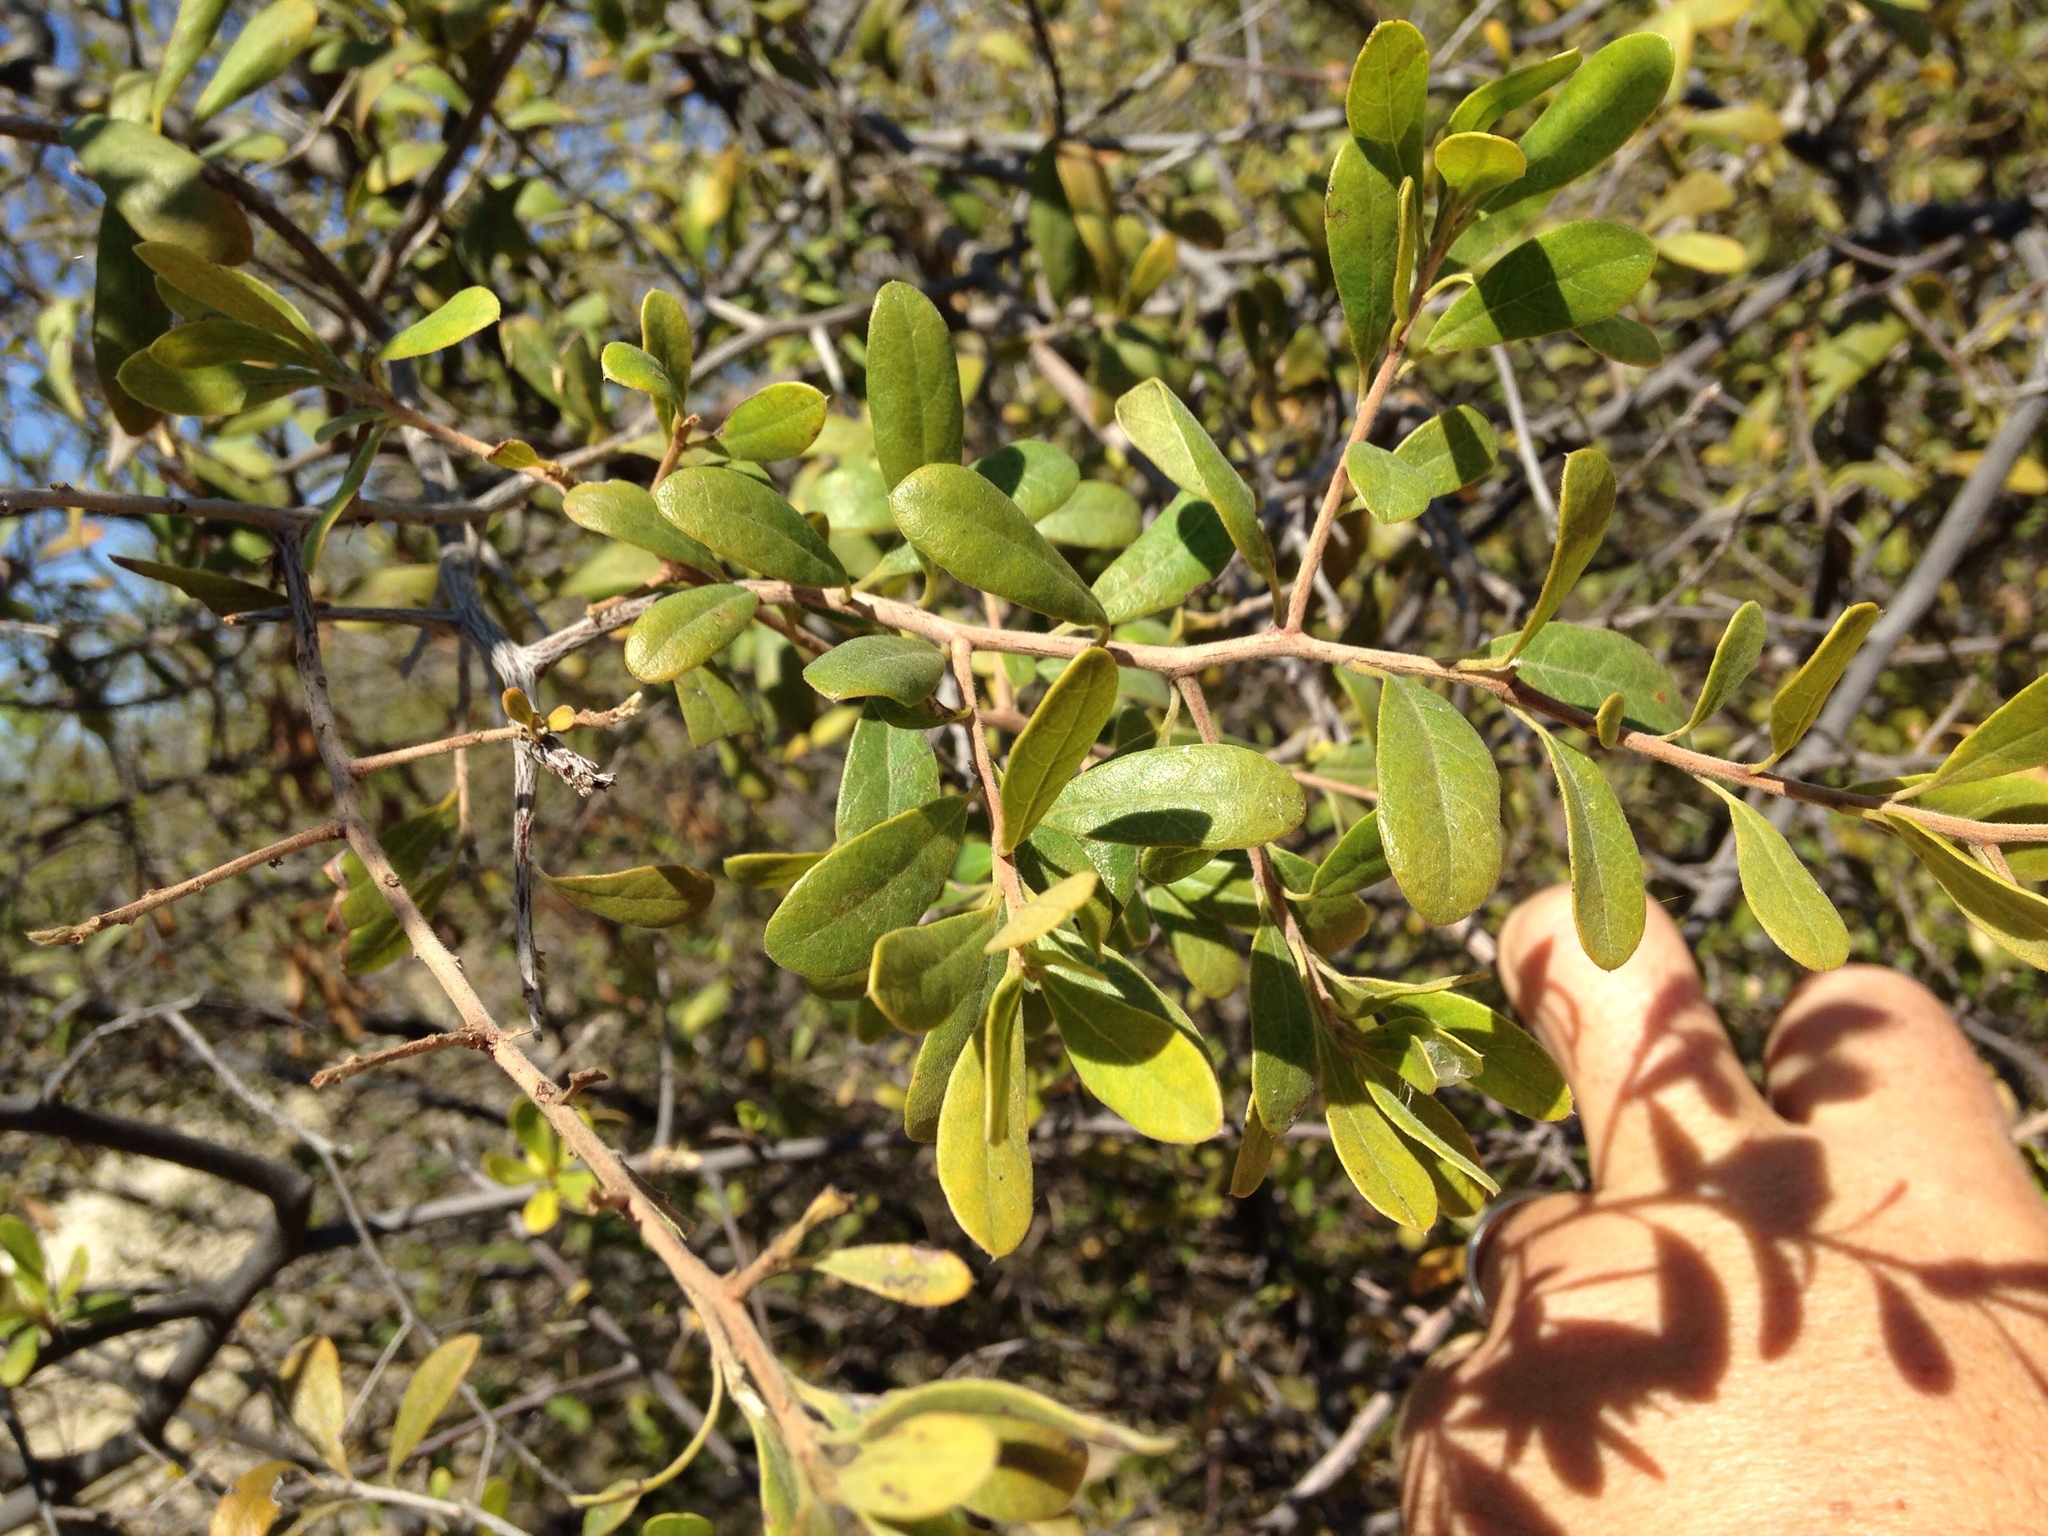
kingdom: Plantae
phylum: Tracheophyta
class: Magnoliopsida
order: Ericales
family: Ebenaceae
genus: Diospyros
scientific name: Diospyros lycioides
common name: Red star apple
